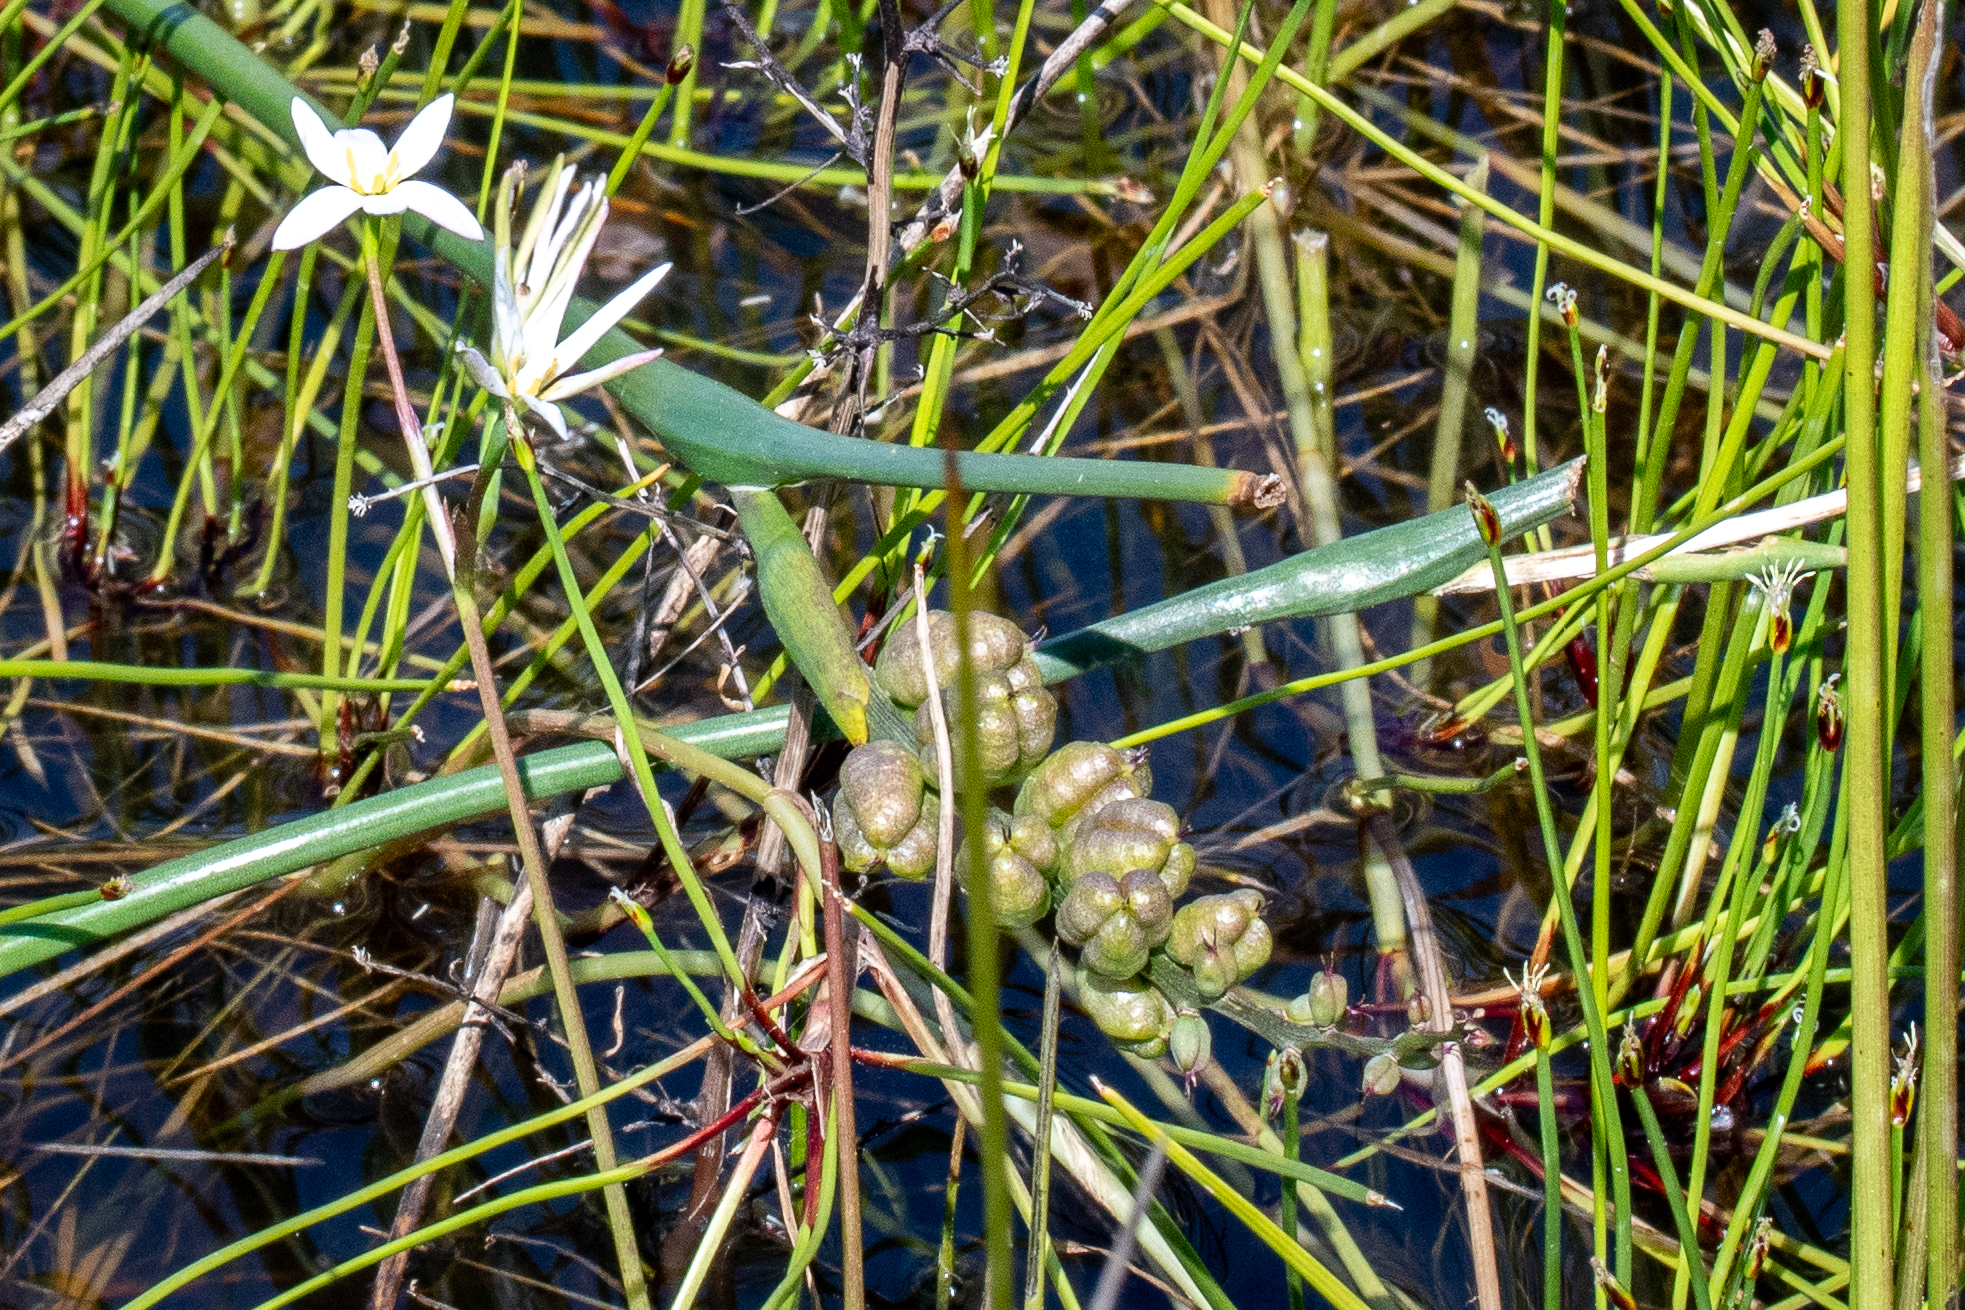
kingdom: Plantae
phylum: Tracheophyta
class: Liliopsida
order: Liliales
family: Colchicaceae
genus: Wurmbea
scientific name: Wurmbea stricta
